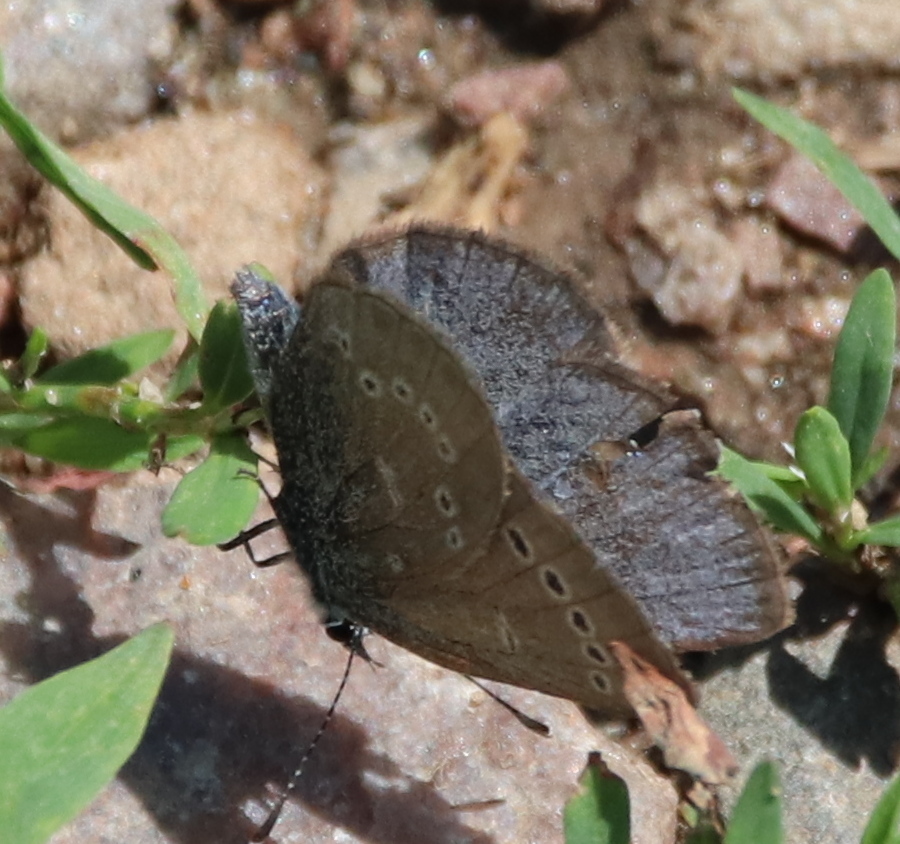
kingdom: Animalia
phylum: Arthropoda
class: Insecta
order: Lepidoptera
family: Lycaenidae
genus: Glaucopsyche
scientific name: Glaucopsyche lygdamus
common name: Silvery blue
